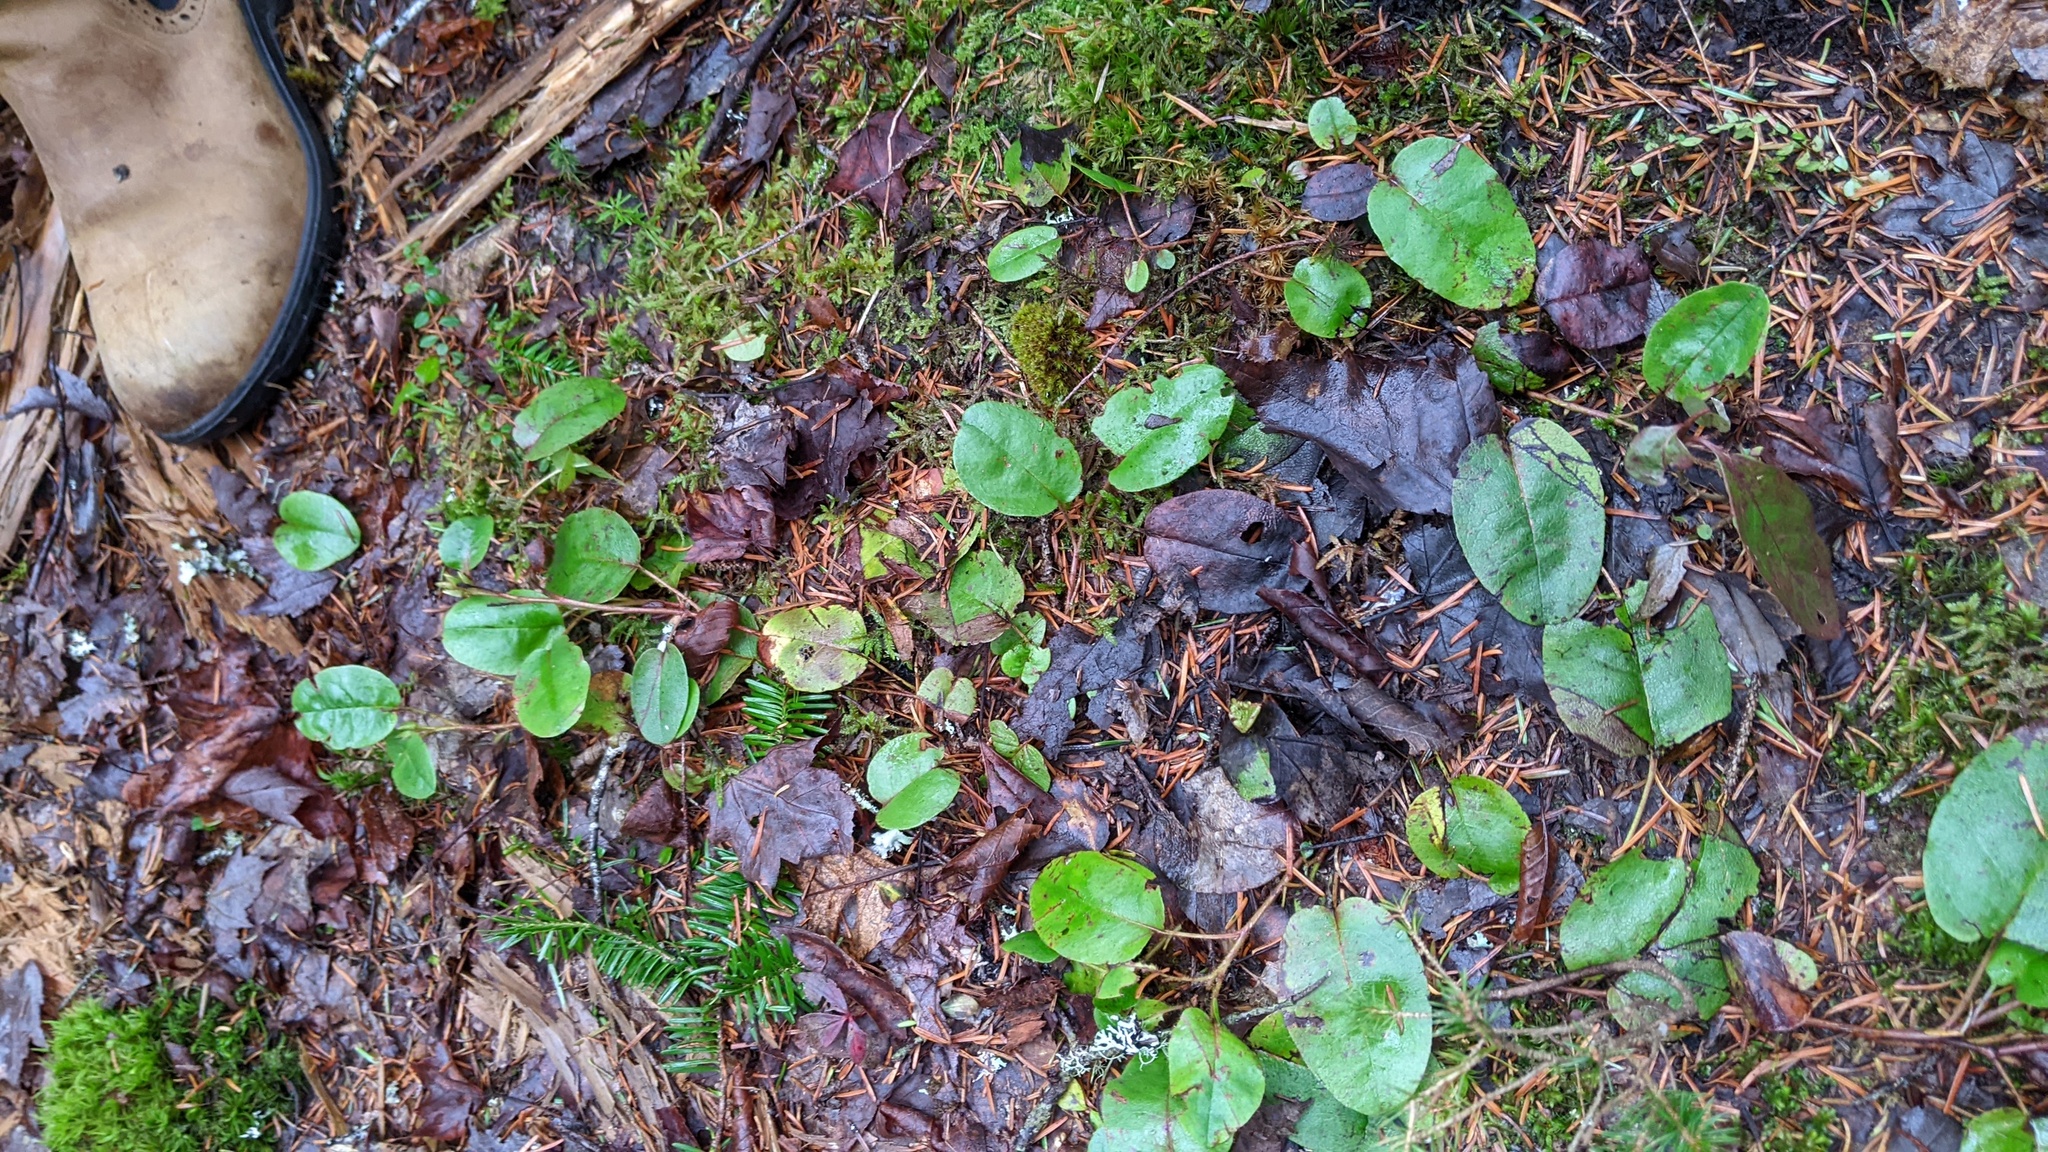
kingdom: Plantae
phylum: Tracheophyta
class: Magnoliopsida
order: Ericales
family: Ericaceae
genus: Epigaea
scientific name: Epigaea repens
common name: Gravelroot
